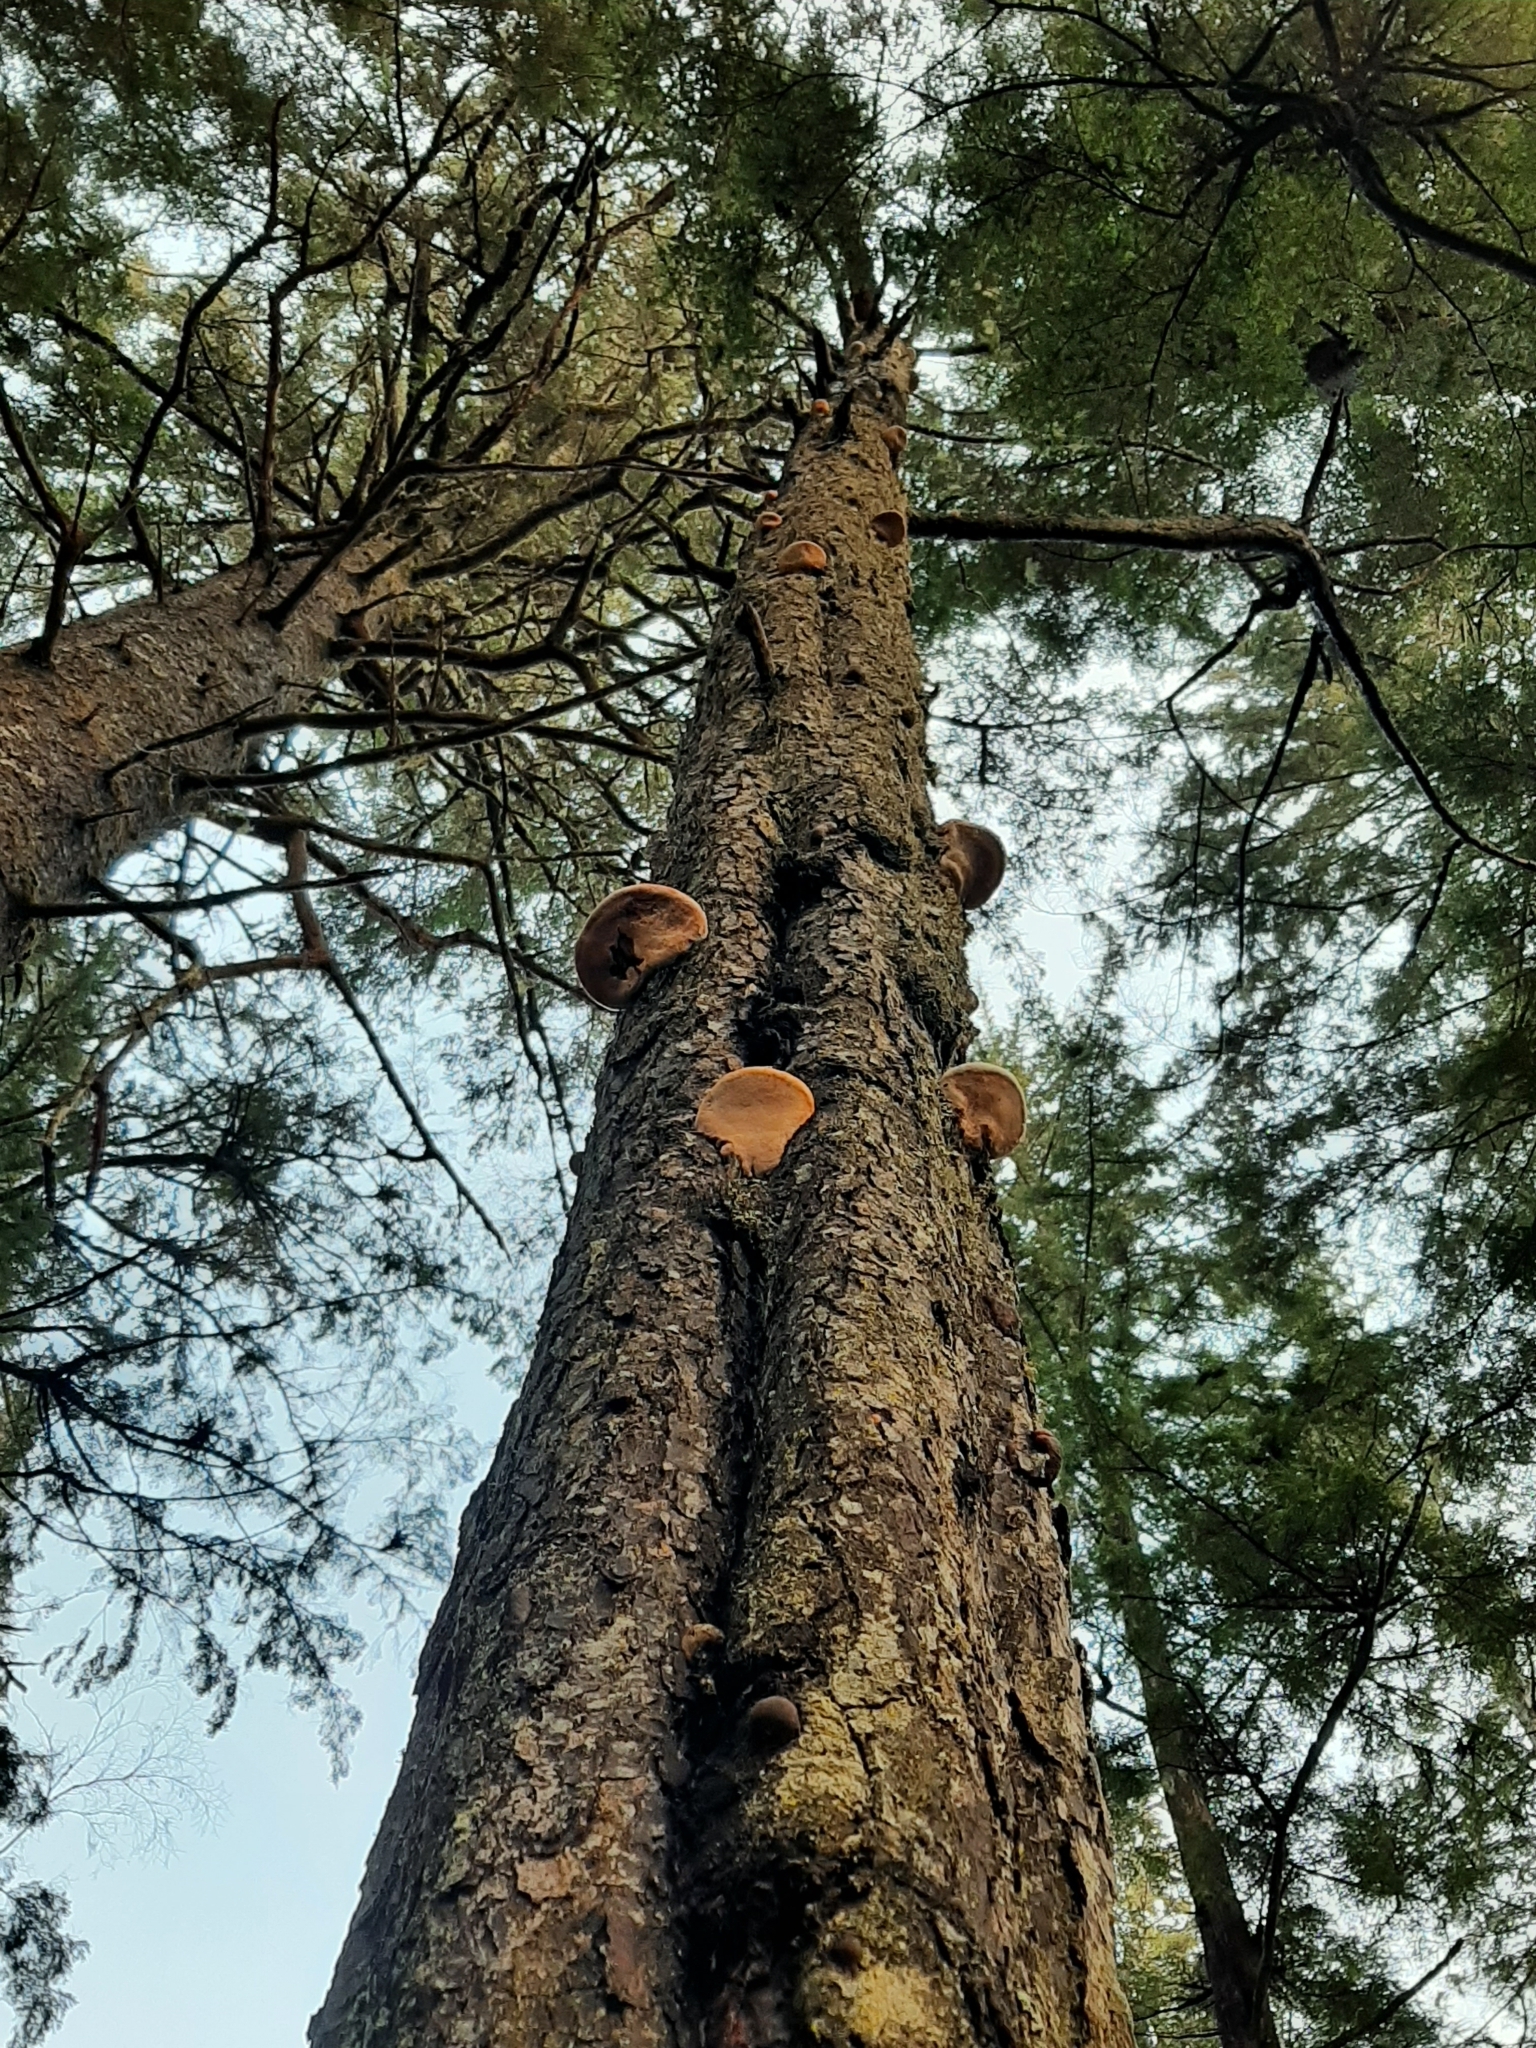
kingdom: Fungi
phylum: Basidiomycota
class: Agaricomycetes
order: Polyporales
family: Fomitopsidaceae
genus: Fomitopsis
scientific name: Fomitopsis ochracea
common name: American brown fomitopsis
